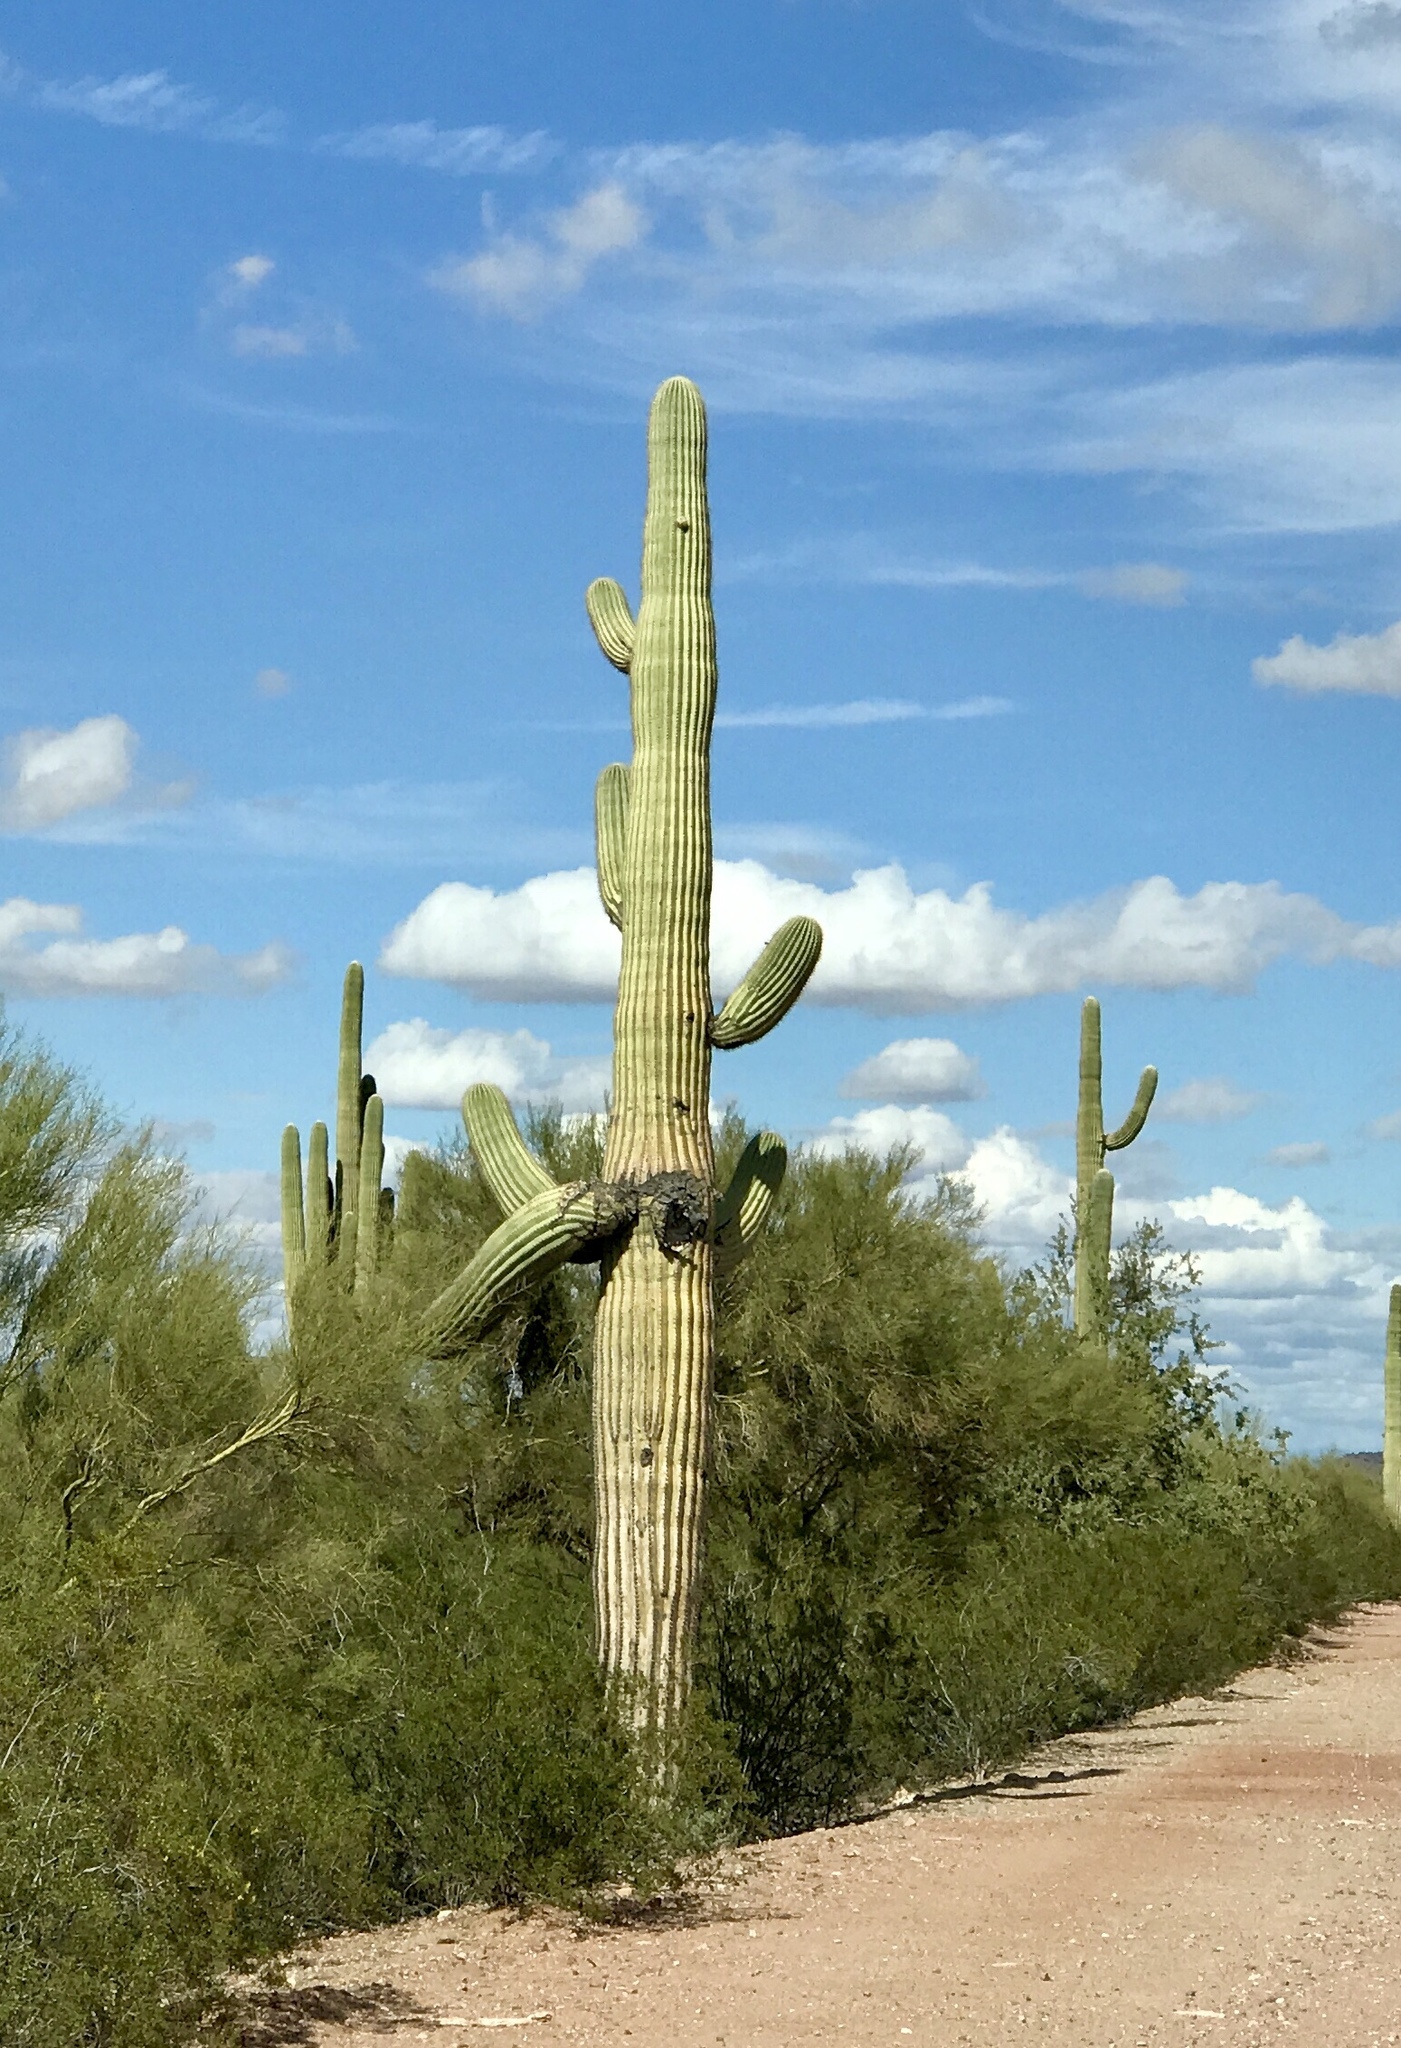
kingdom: Plantae
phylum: Tracheophyta
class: Magnoliopsida
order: Caryophyllales
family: Cactaceae
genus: Carnegiea
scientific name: Carnegiea gigantea
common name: Saguaro
